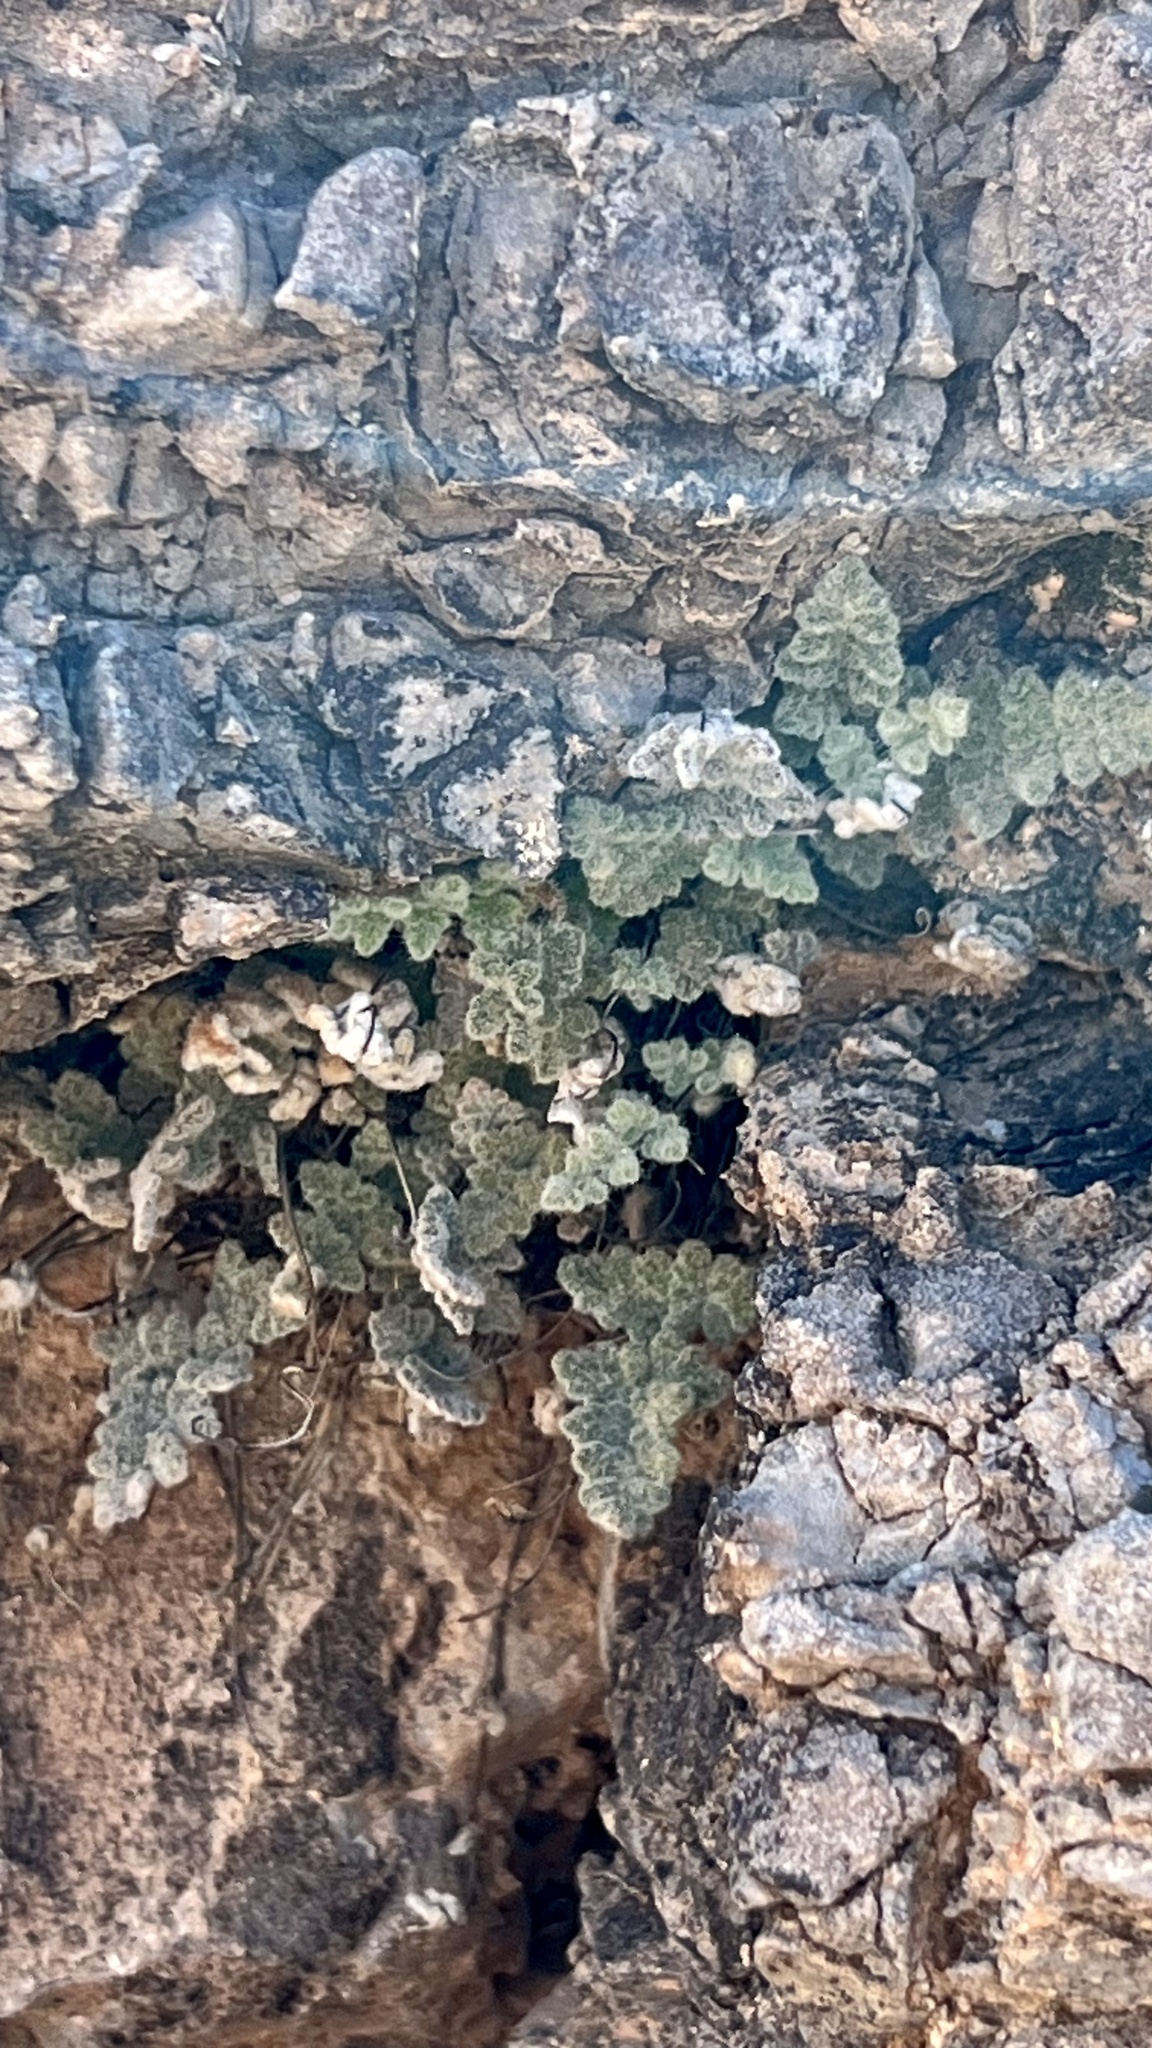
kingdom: Plantae
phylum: Tracheophyta
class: Polypodiopsida
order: Polypodiales
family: Pteridaceae
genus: Myriopteris
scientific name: Myriopteris parryi
